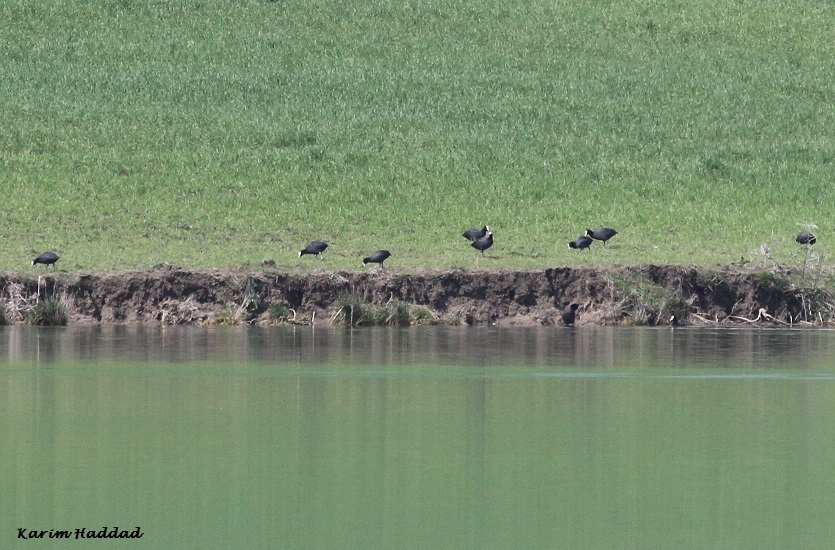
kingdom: Animalia
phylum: Chordata
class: Aves
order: Gruiformes
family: Rallidae
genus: Fulica
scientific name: Fulica atra
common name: Eurasian coot
